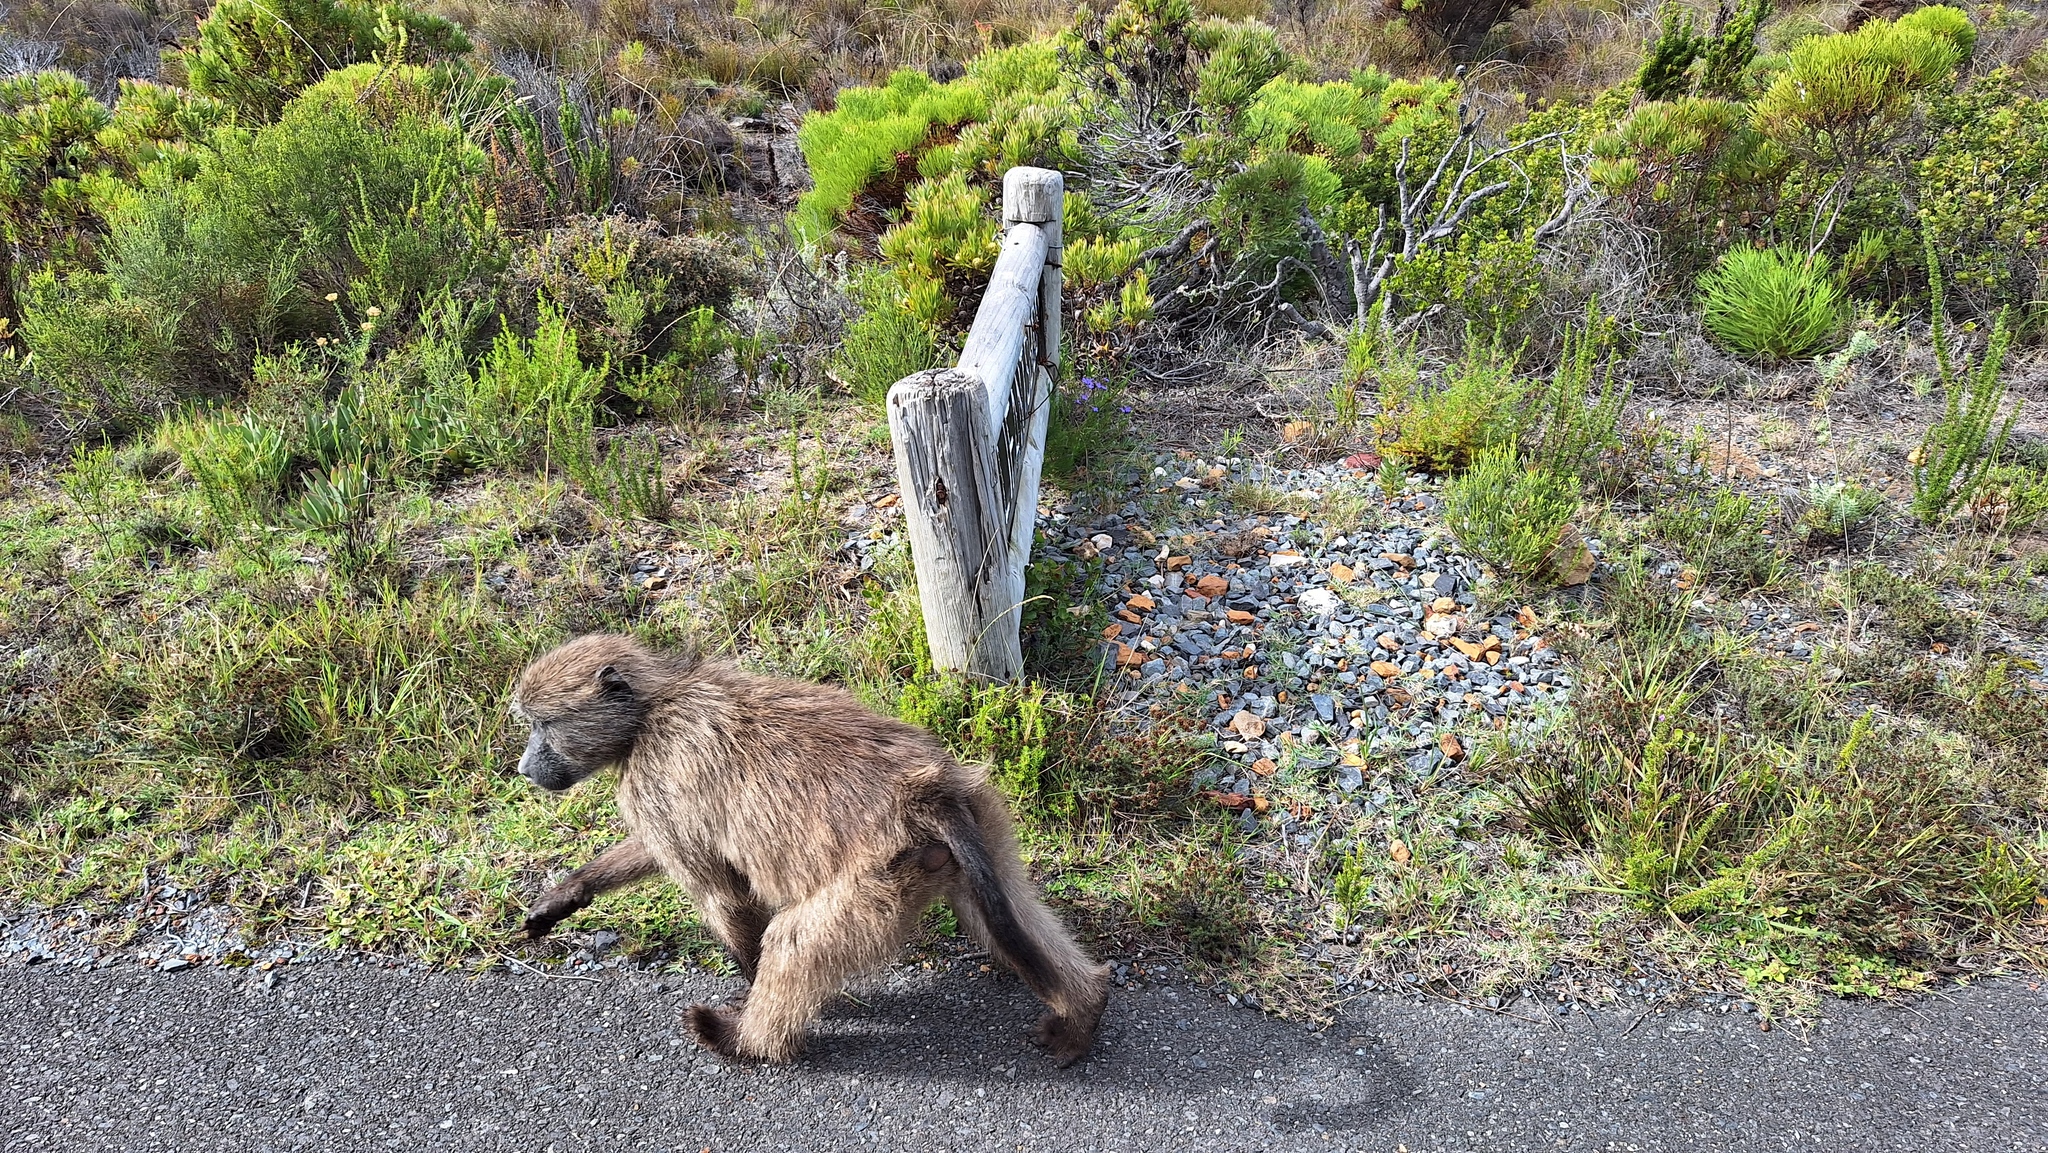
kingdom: Animalia
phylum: Chordata
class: Mammalia
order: Primates
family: Cercopithecidae
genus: Papio
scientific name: Papio ursinus
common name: Chacma baboon
